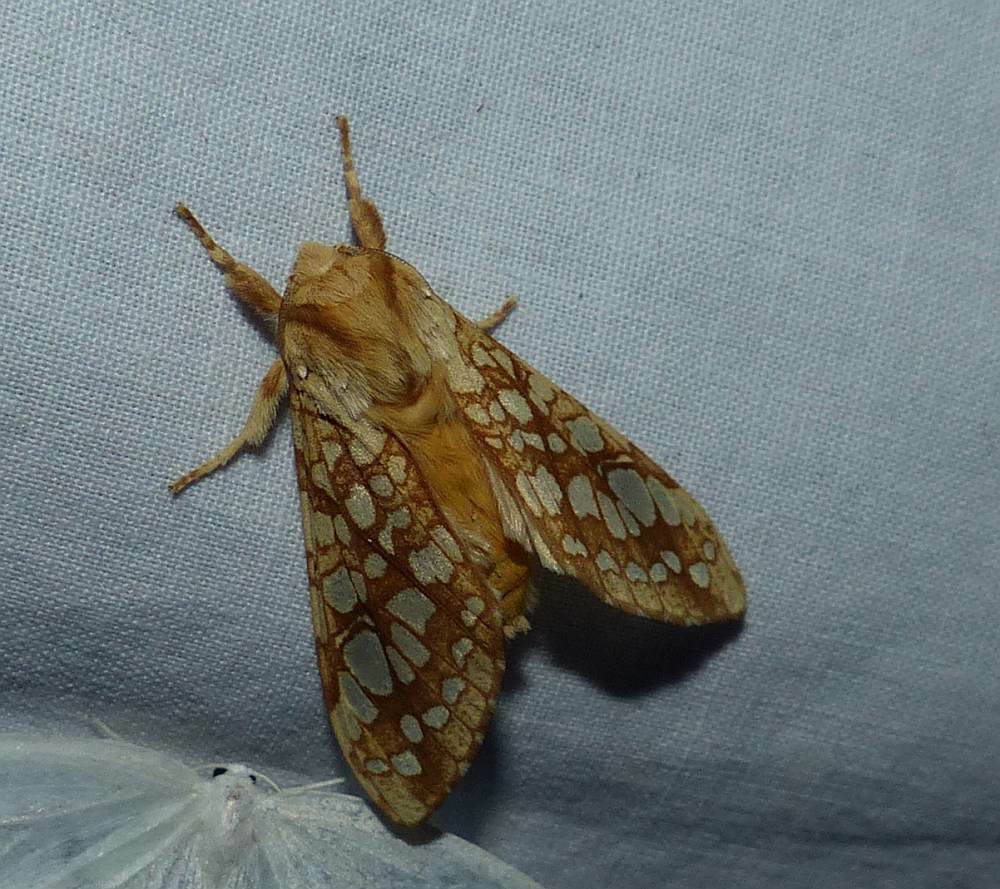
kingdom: Animalia
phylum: Arthropoda
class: Insecta
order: Lepidoptera
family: Erebidae
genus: Lophocampa
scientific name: Lophocampa caryae
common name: Hickory tussock moth
